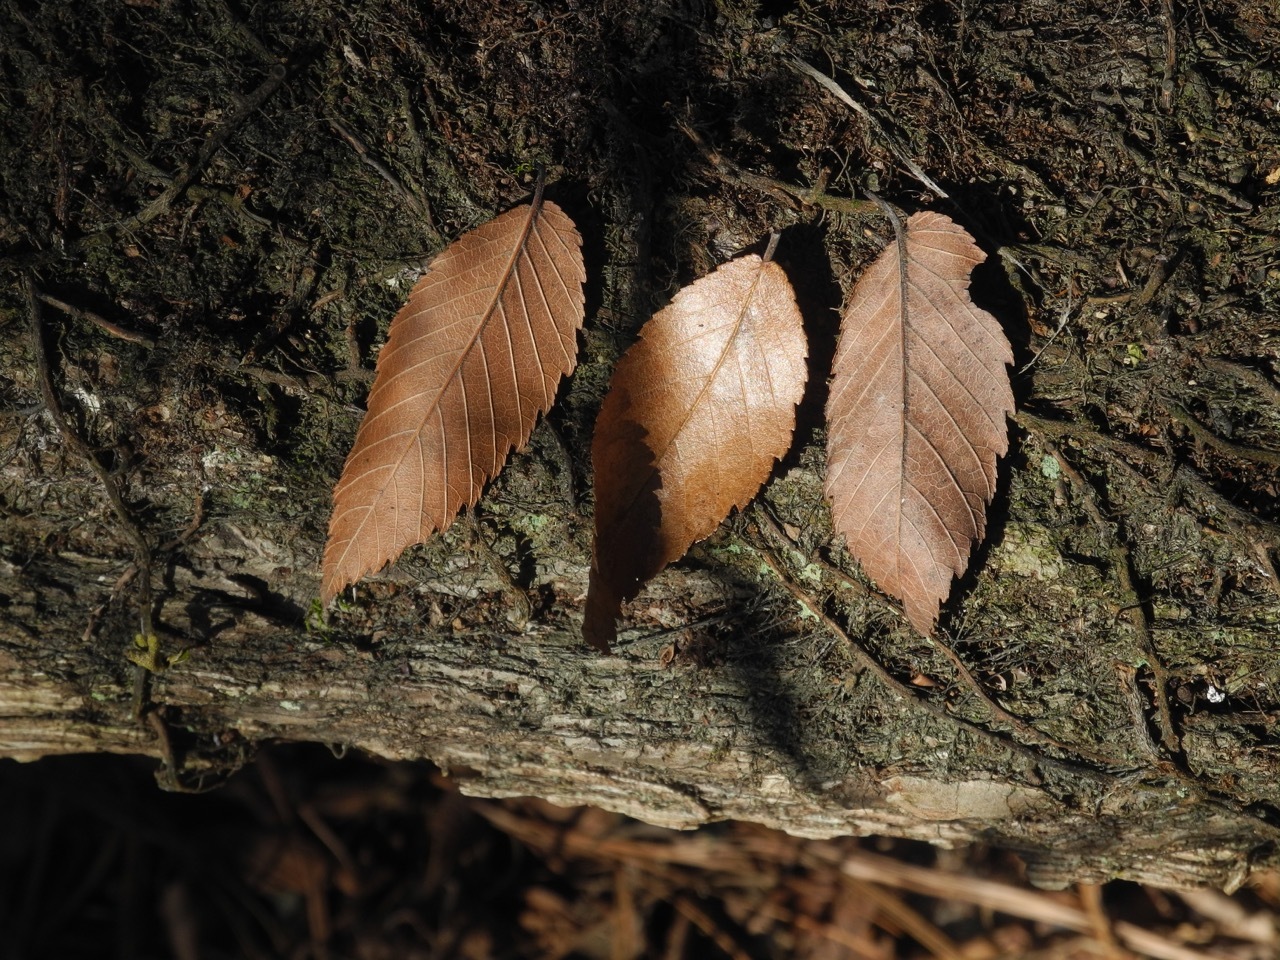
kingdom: Plantae
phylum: Tracheophyta
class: Magnoliopsida
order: Rosales
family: Ulmaceae
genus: Ulmus
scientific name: Ulmus alata
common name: Winged elm
